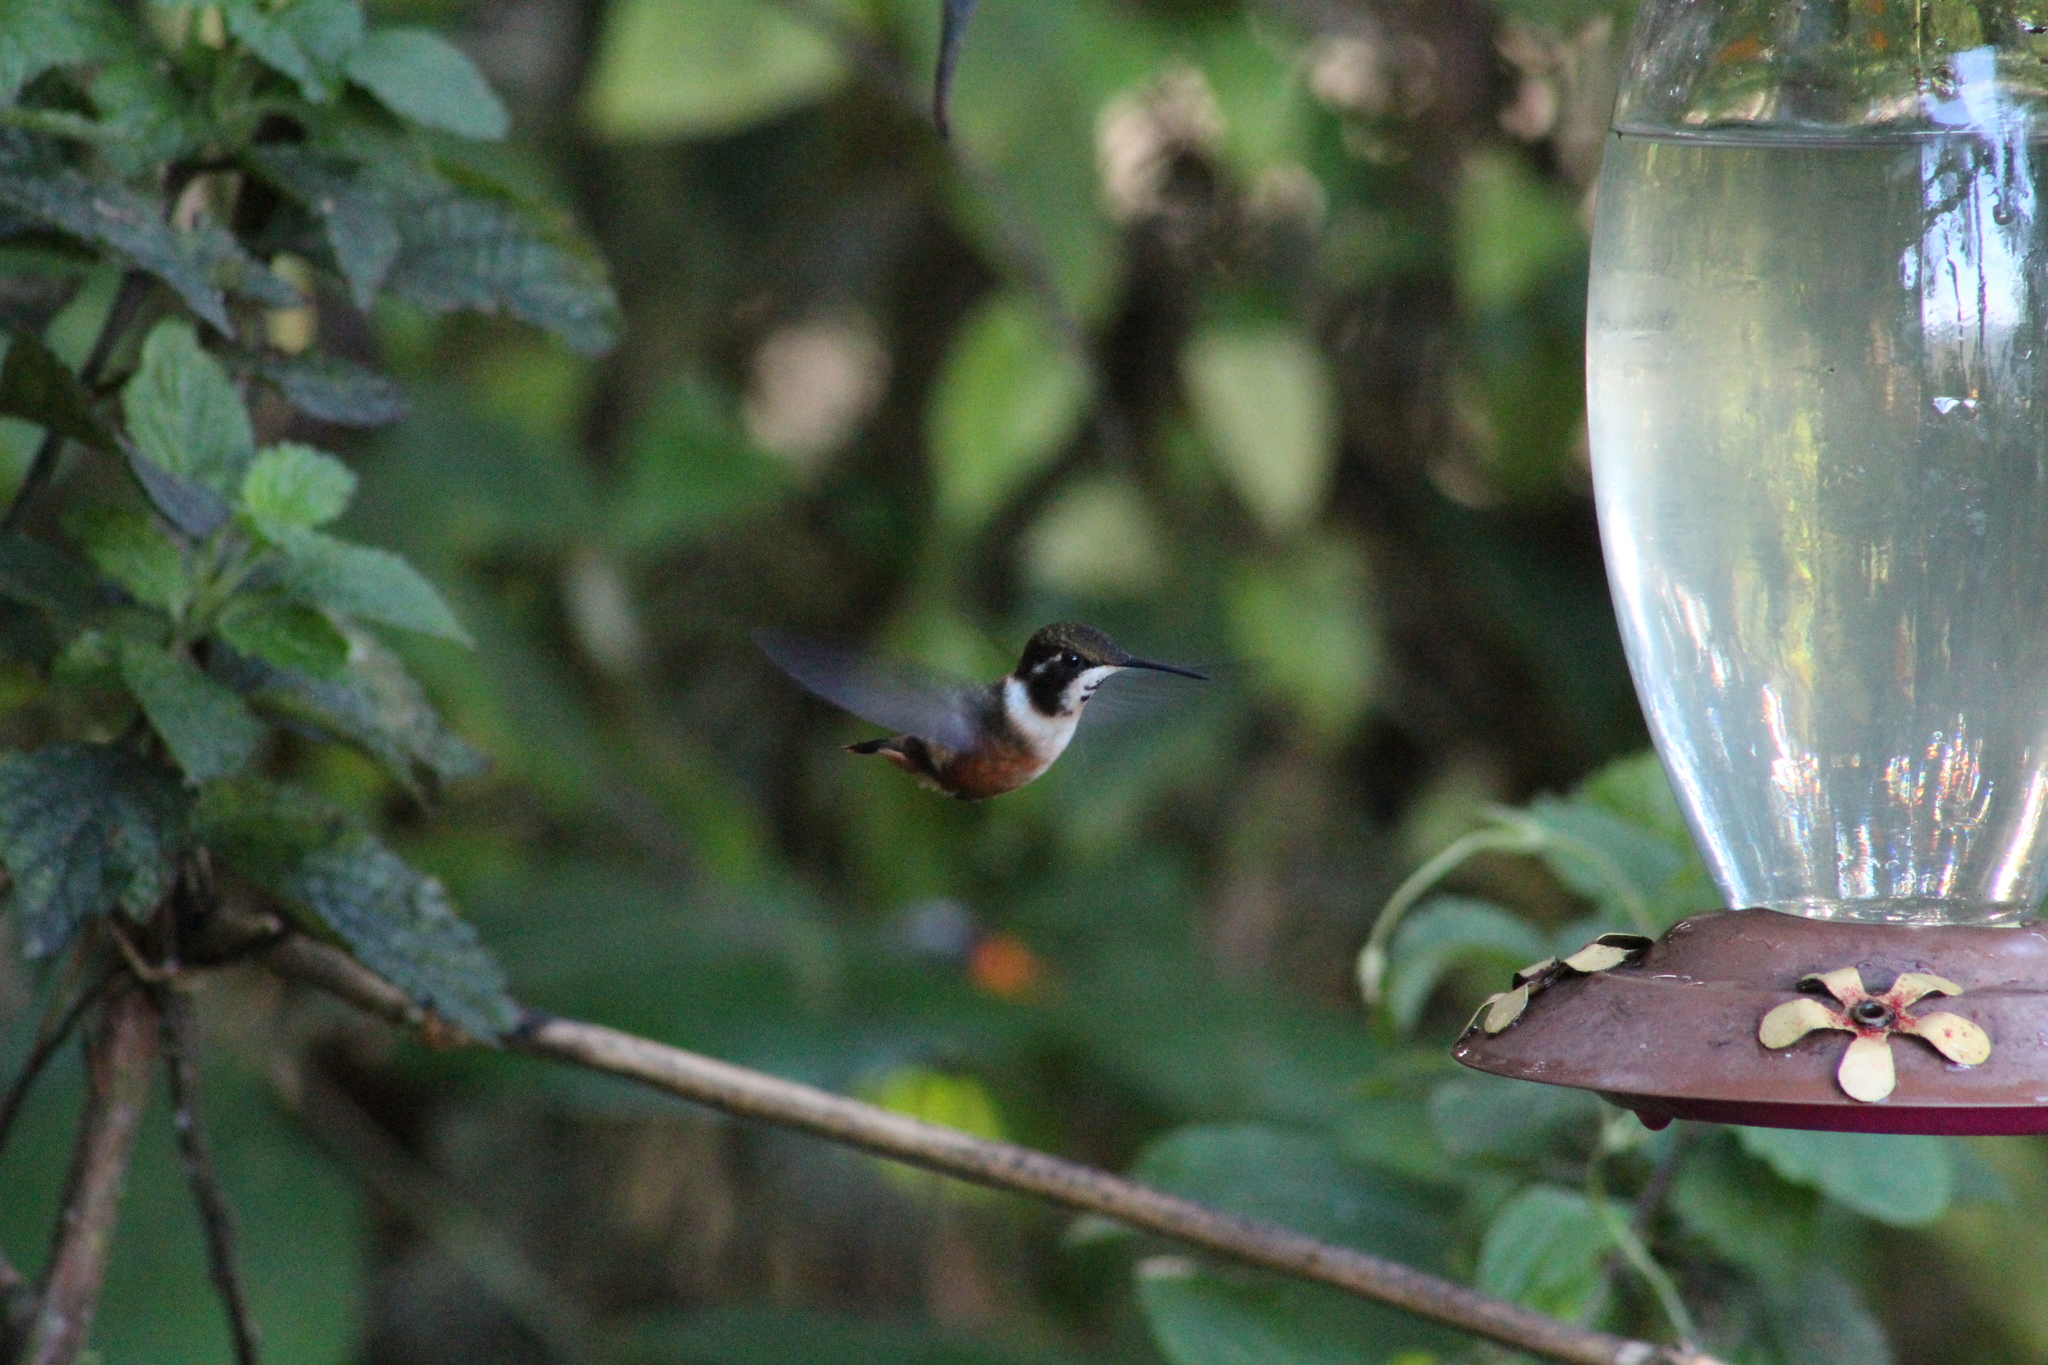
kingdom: Animalia
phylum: Chordata
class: Aves
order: Apodiformes
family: Trochilidae
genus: Chaetocercus
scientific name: Chaetocercus mulsant
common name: White-bellied woodstar
